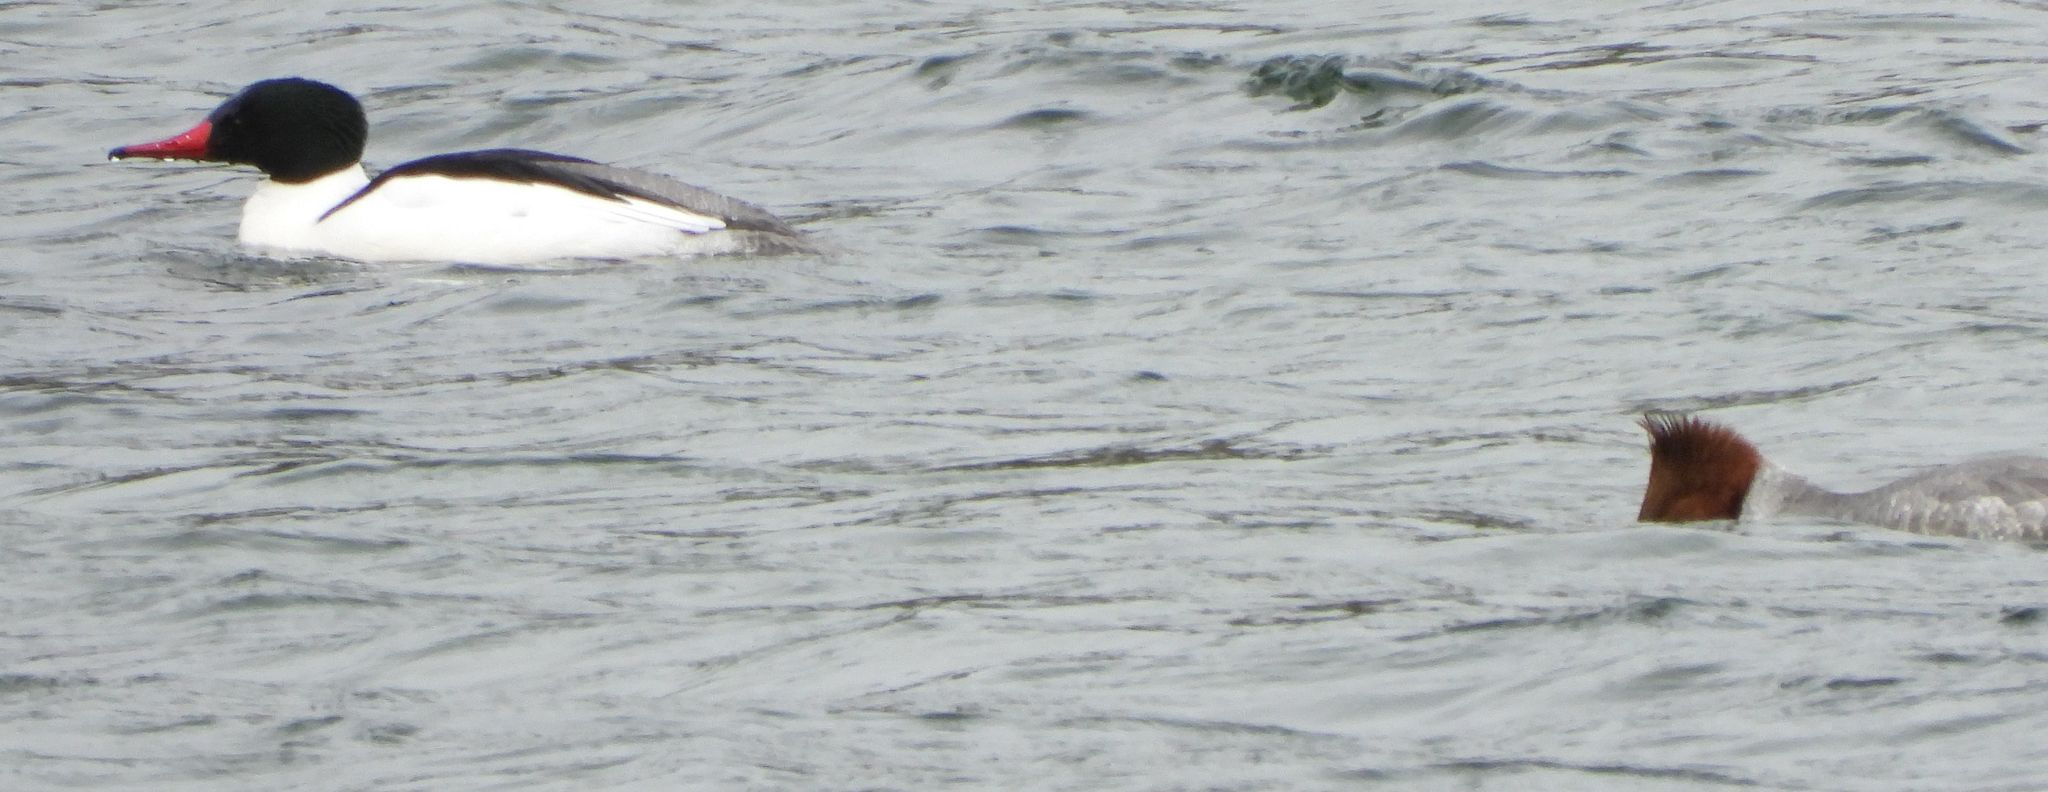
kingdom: Animalia
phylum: Chordata
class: Aves
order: Anseriformes
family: Anatidae
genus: Mergus
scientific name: Mergus merganser
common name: Common merganser
